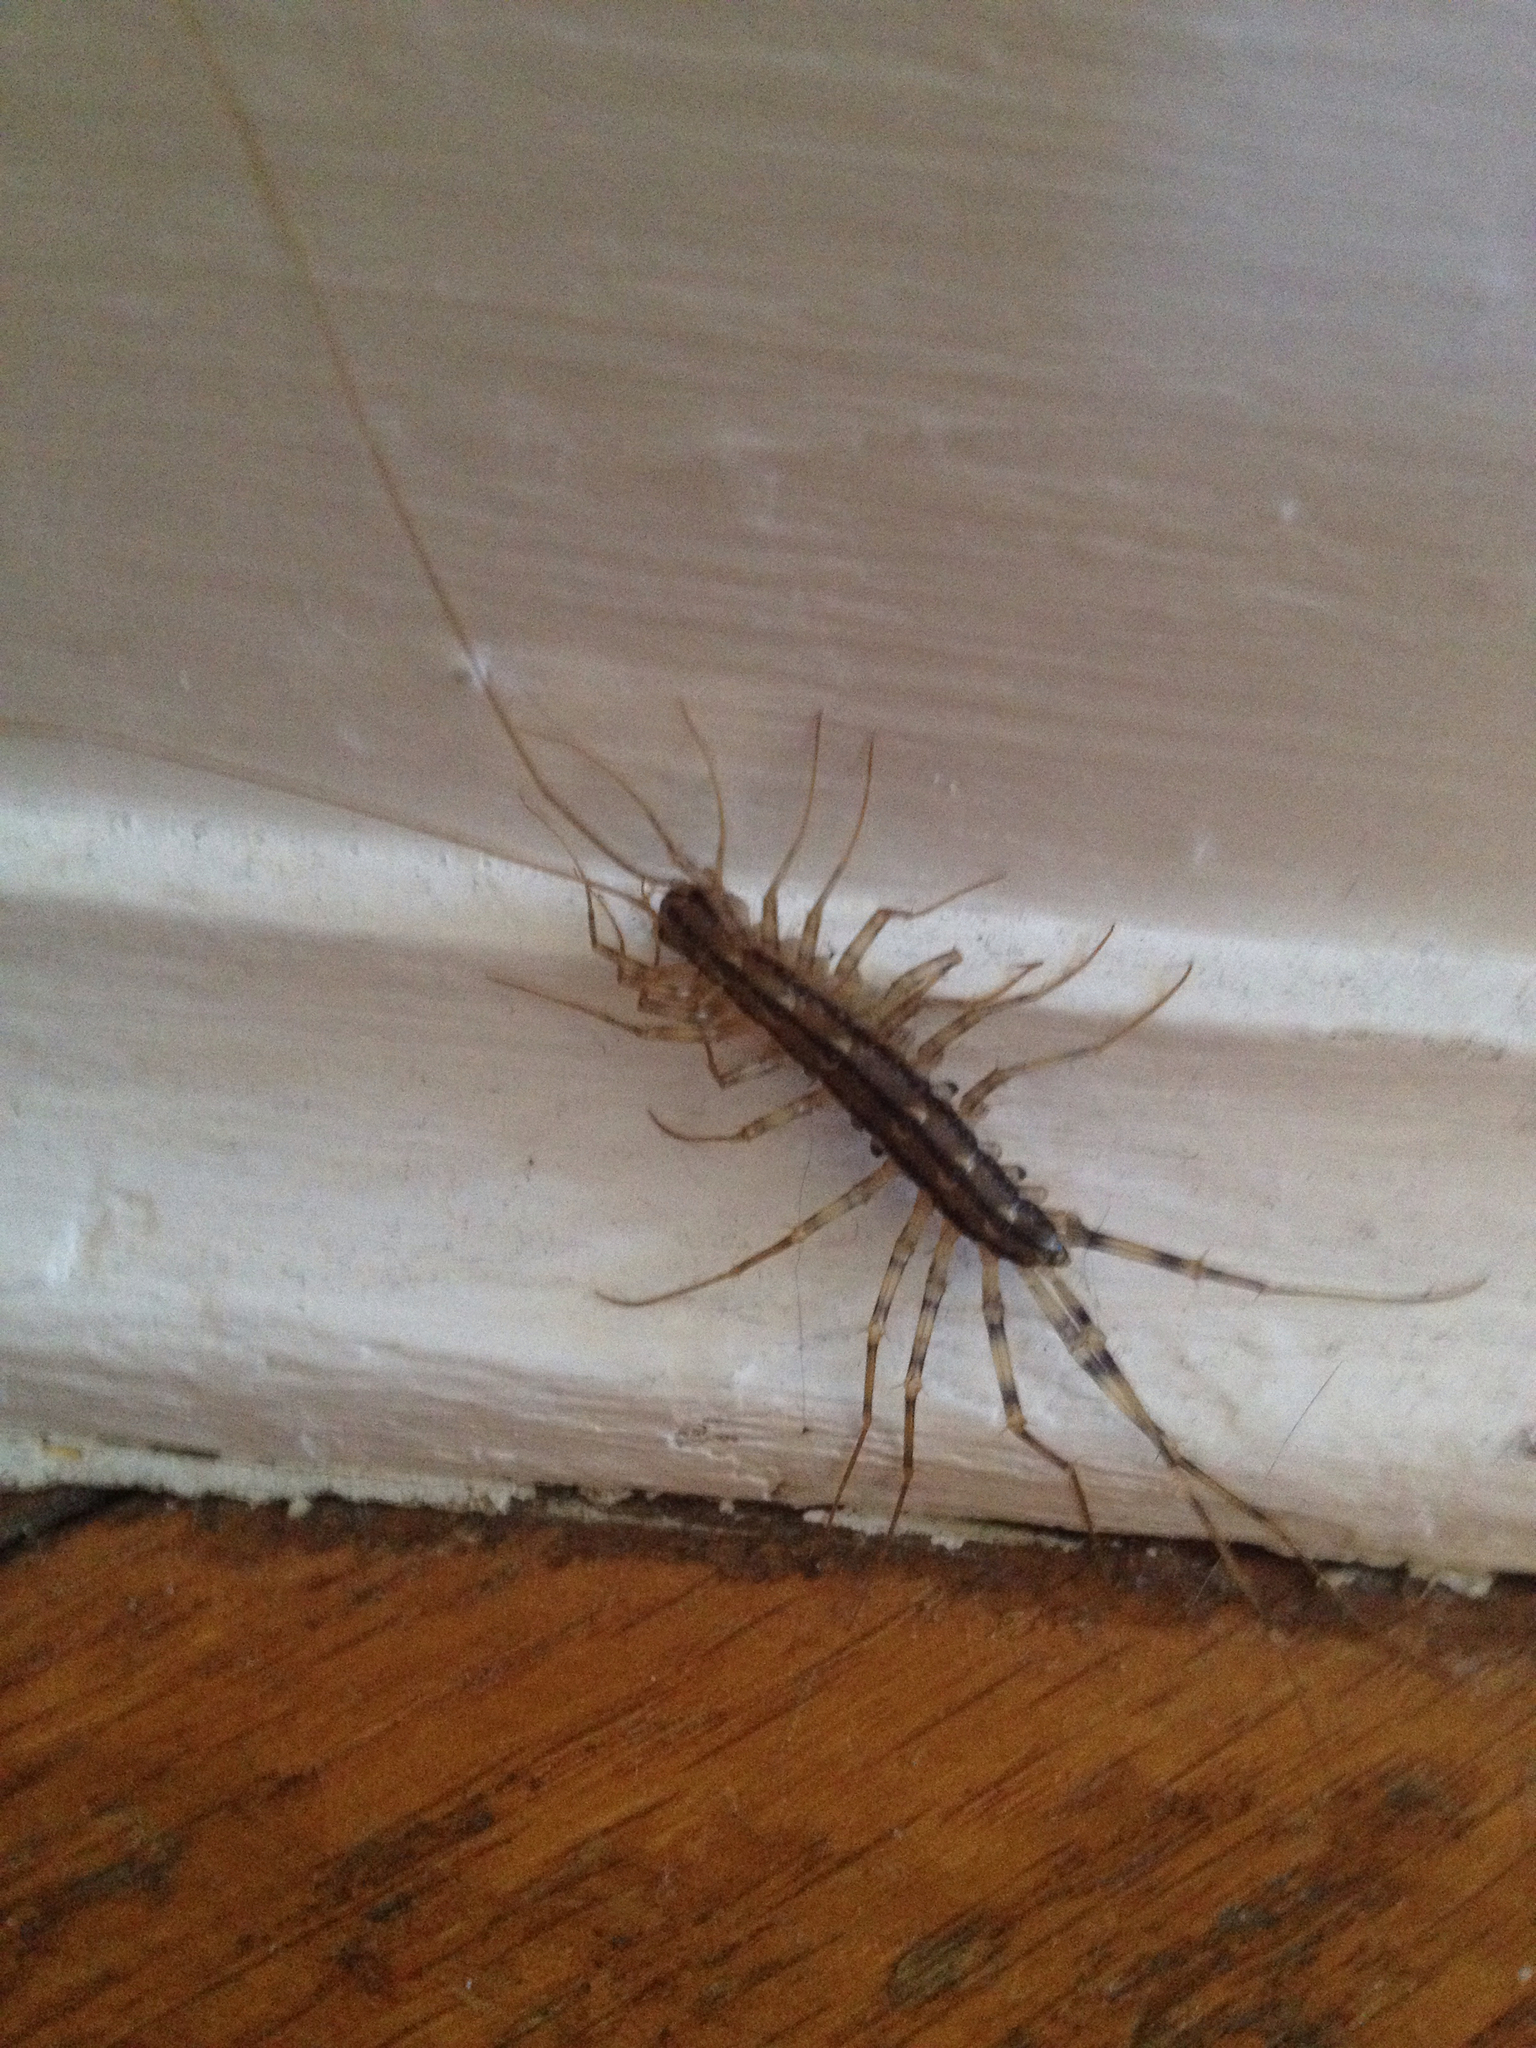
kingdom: Animalia
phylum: Arthropoda
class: Chilopoda
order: Scutigeromorpha
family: Scutigeridae
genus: Scutigera
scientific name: Scutigera coleoptrata
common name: House centipede
